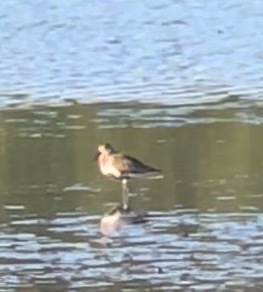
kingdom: Animalia
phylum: Chordata
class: Aves
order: Charadriiformes
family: Scolopacidae
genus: Calidris
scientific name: Calidris alpina
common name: Dunlin
